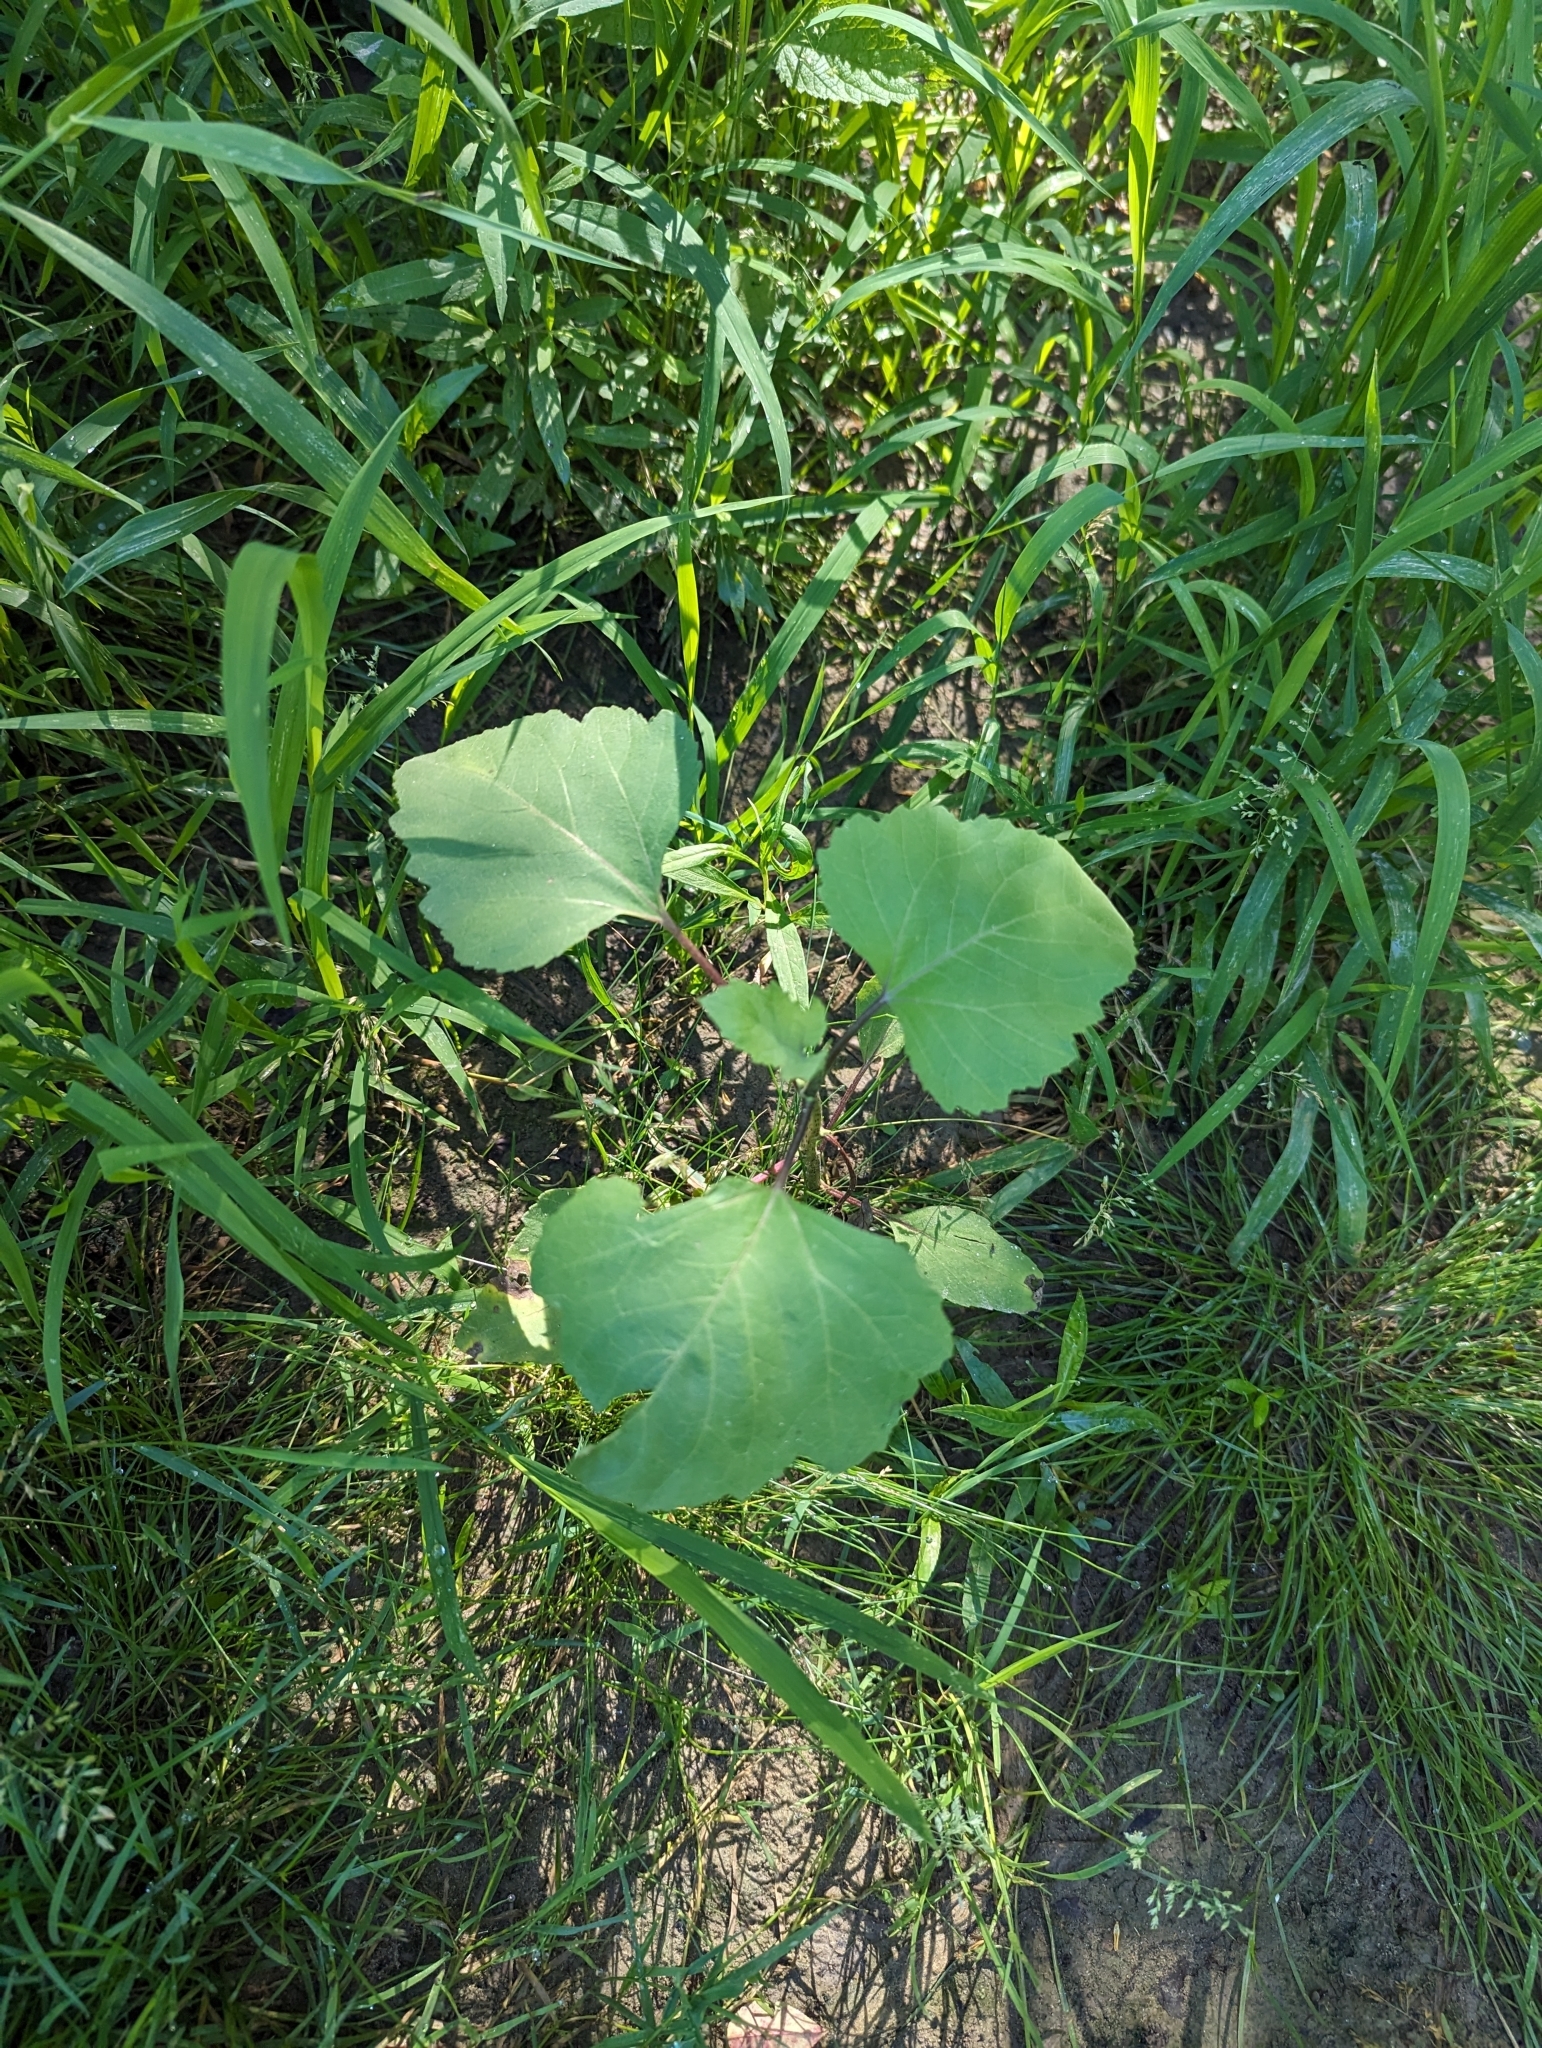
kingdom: Plantae
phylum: Tracheophyta
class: Magnoliopsida
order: Asterales
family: Asteraceae
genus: Xanthium
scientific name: Xanthium strumarium
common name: Rough cocklebur
